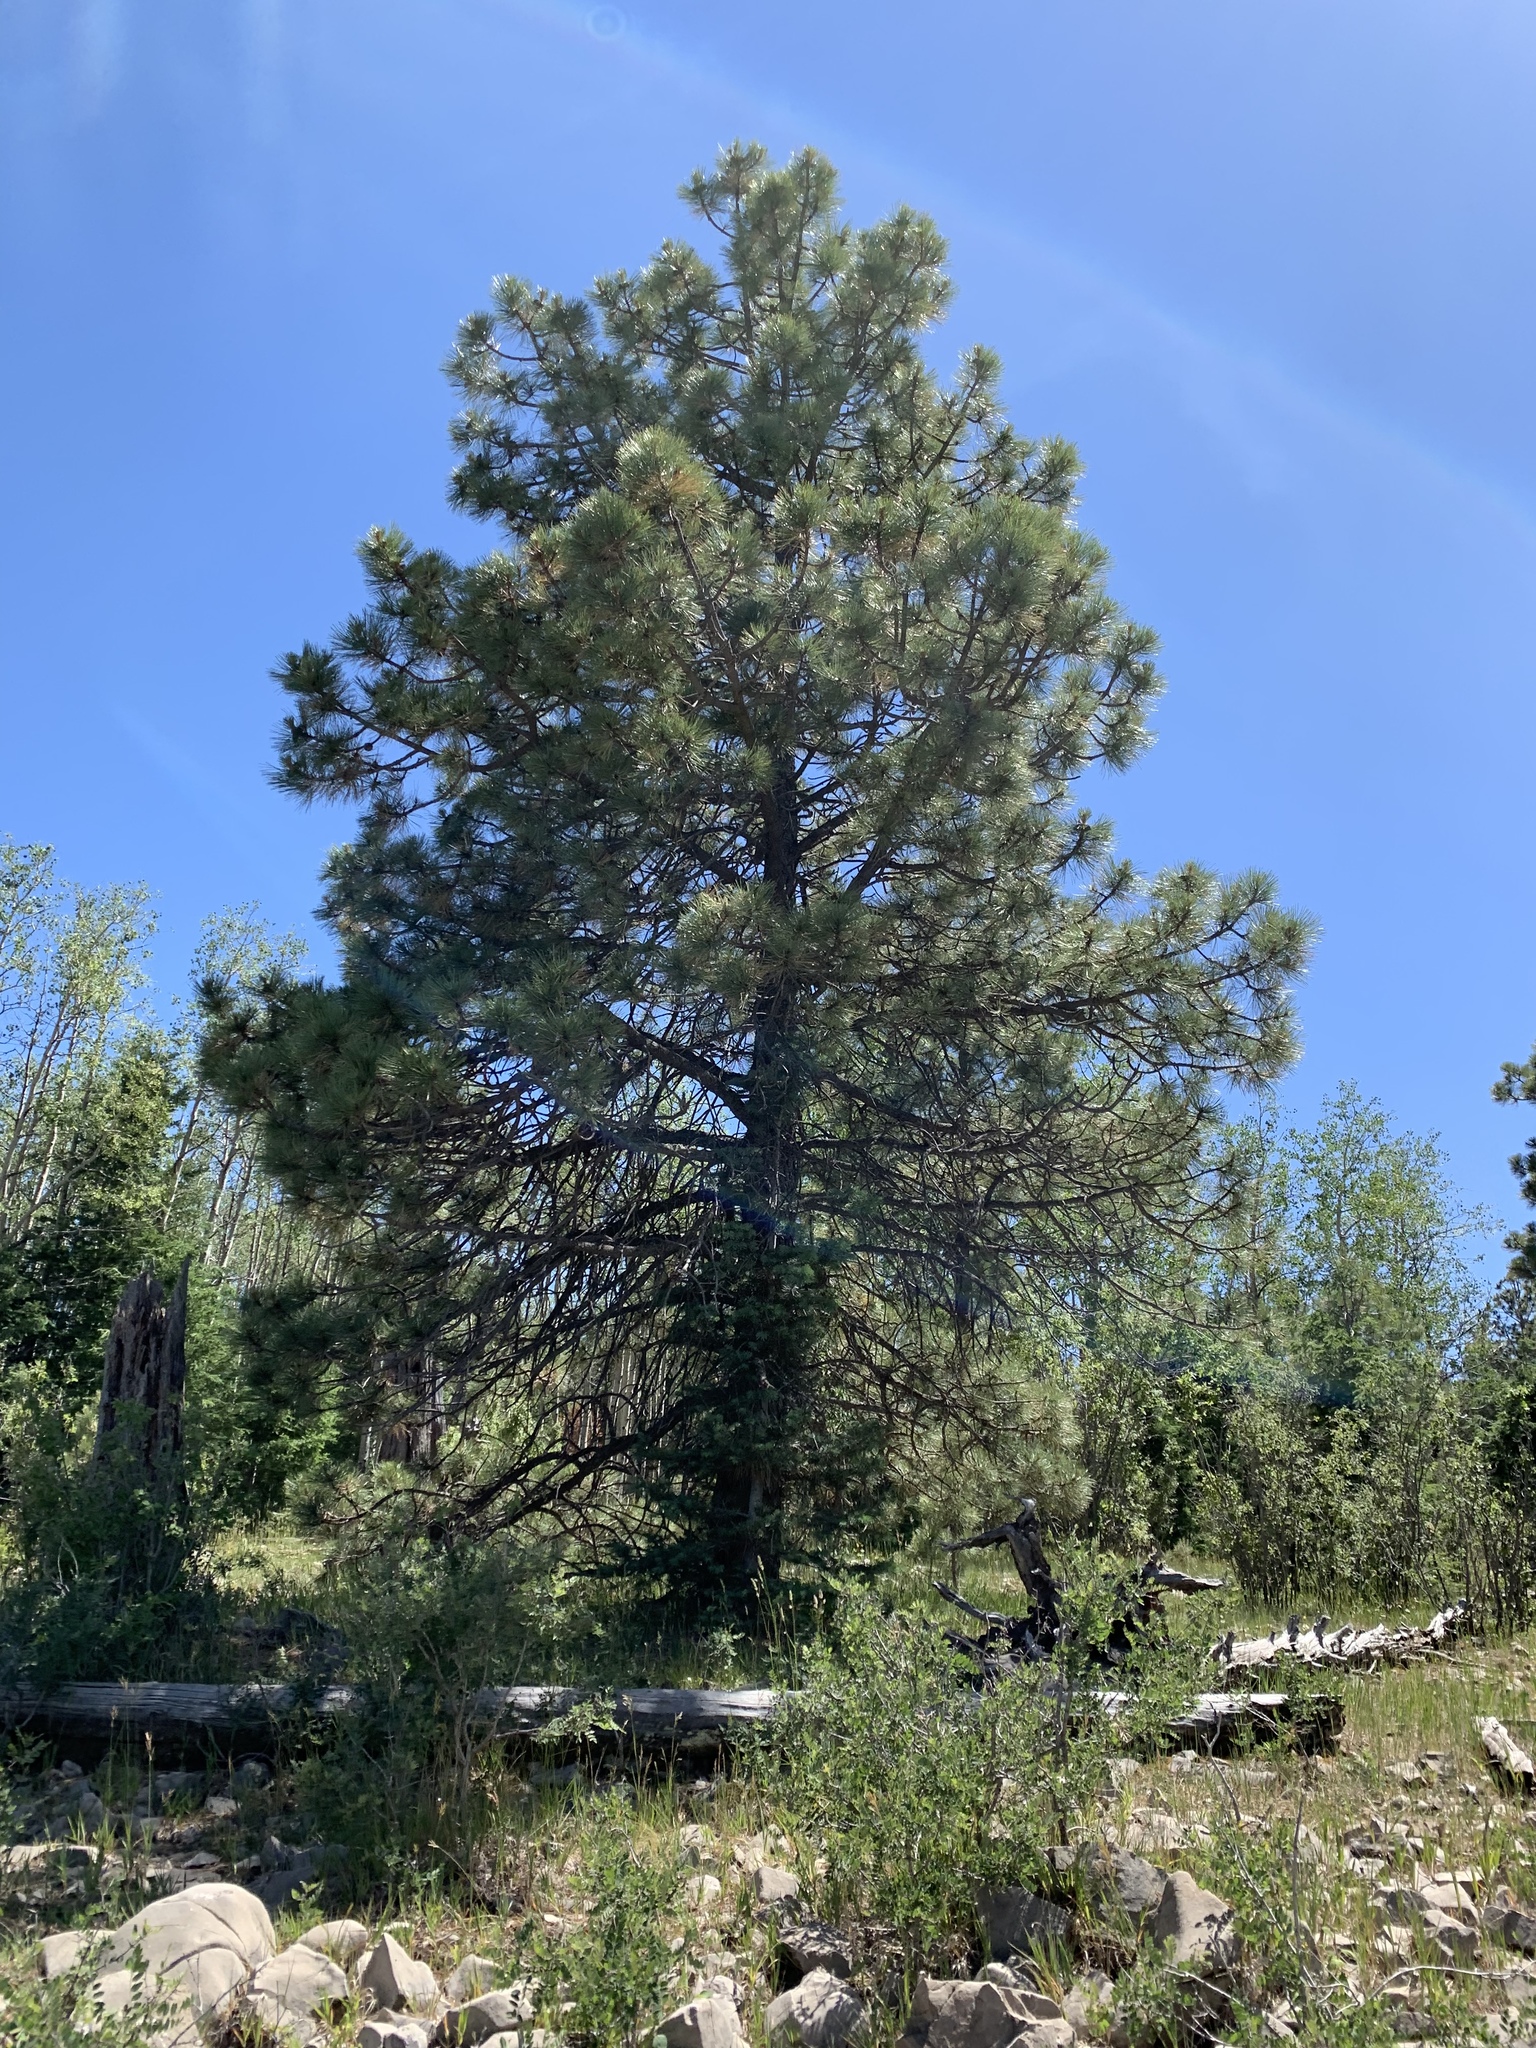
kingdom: Plantae
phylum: Tracheophyta
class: Pinopsida
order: Pinales
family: Pinaceae
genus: Pinus
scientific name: Pinus ponderosa
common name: Western yellow-pine
